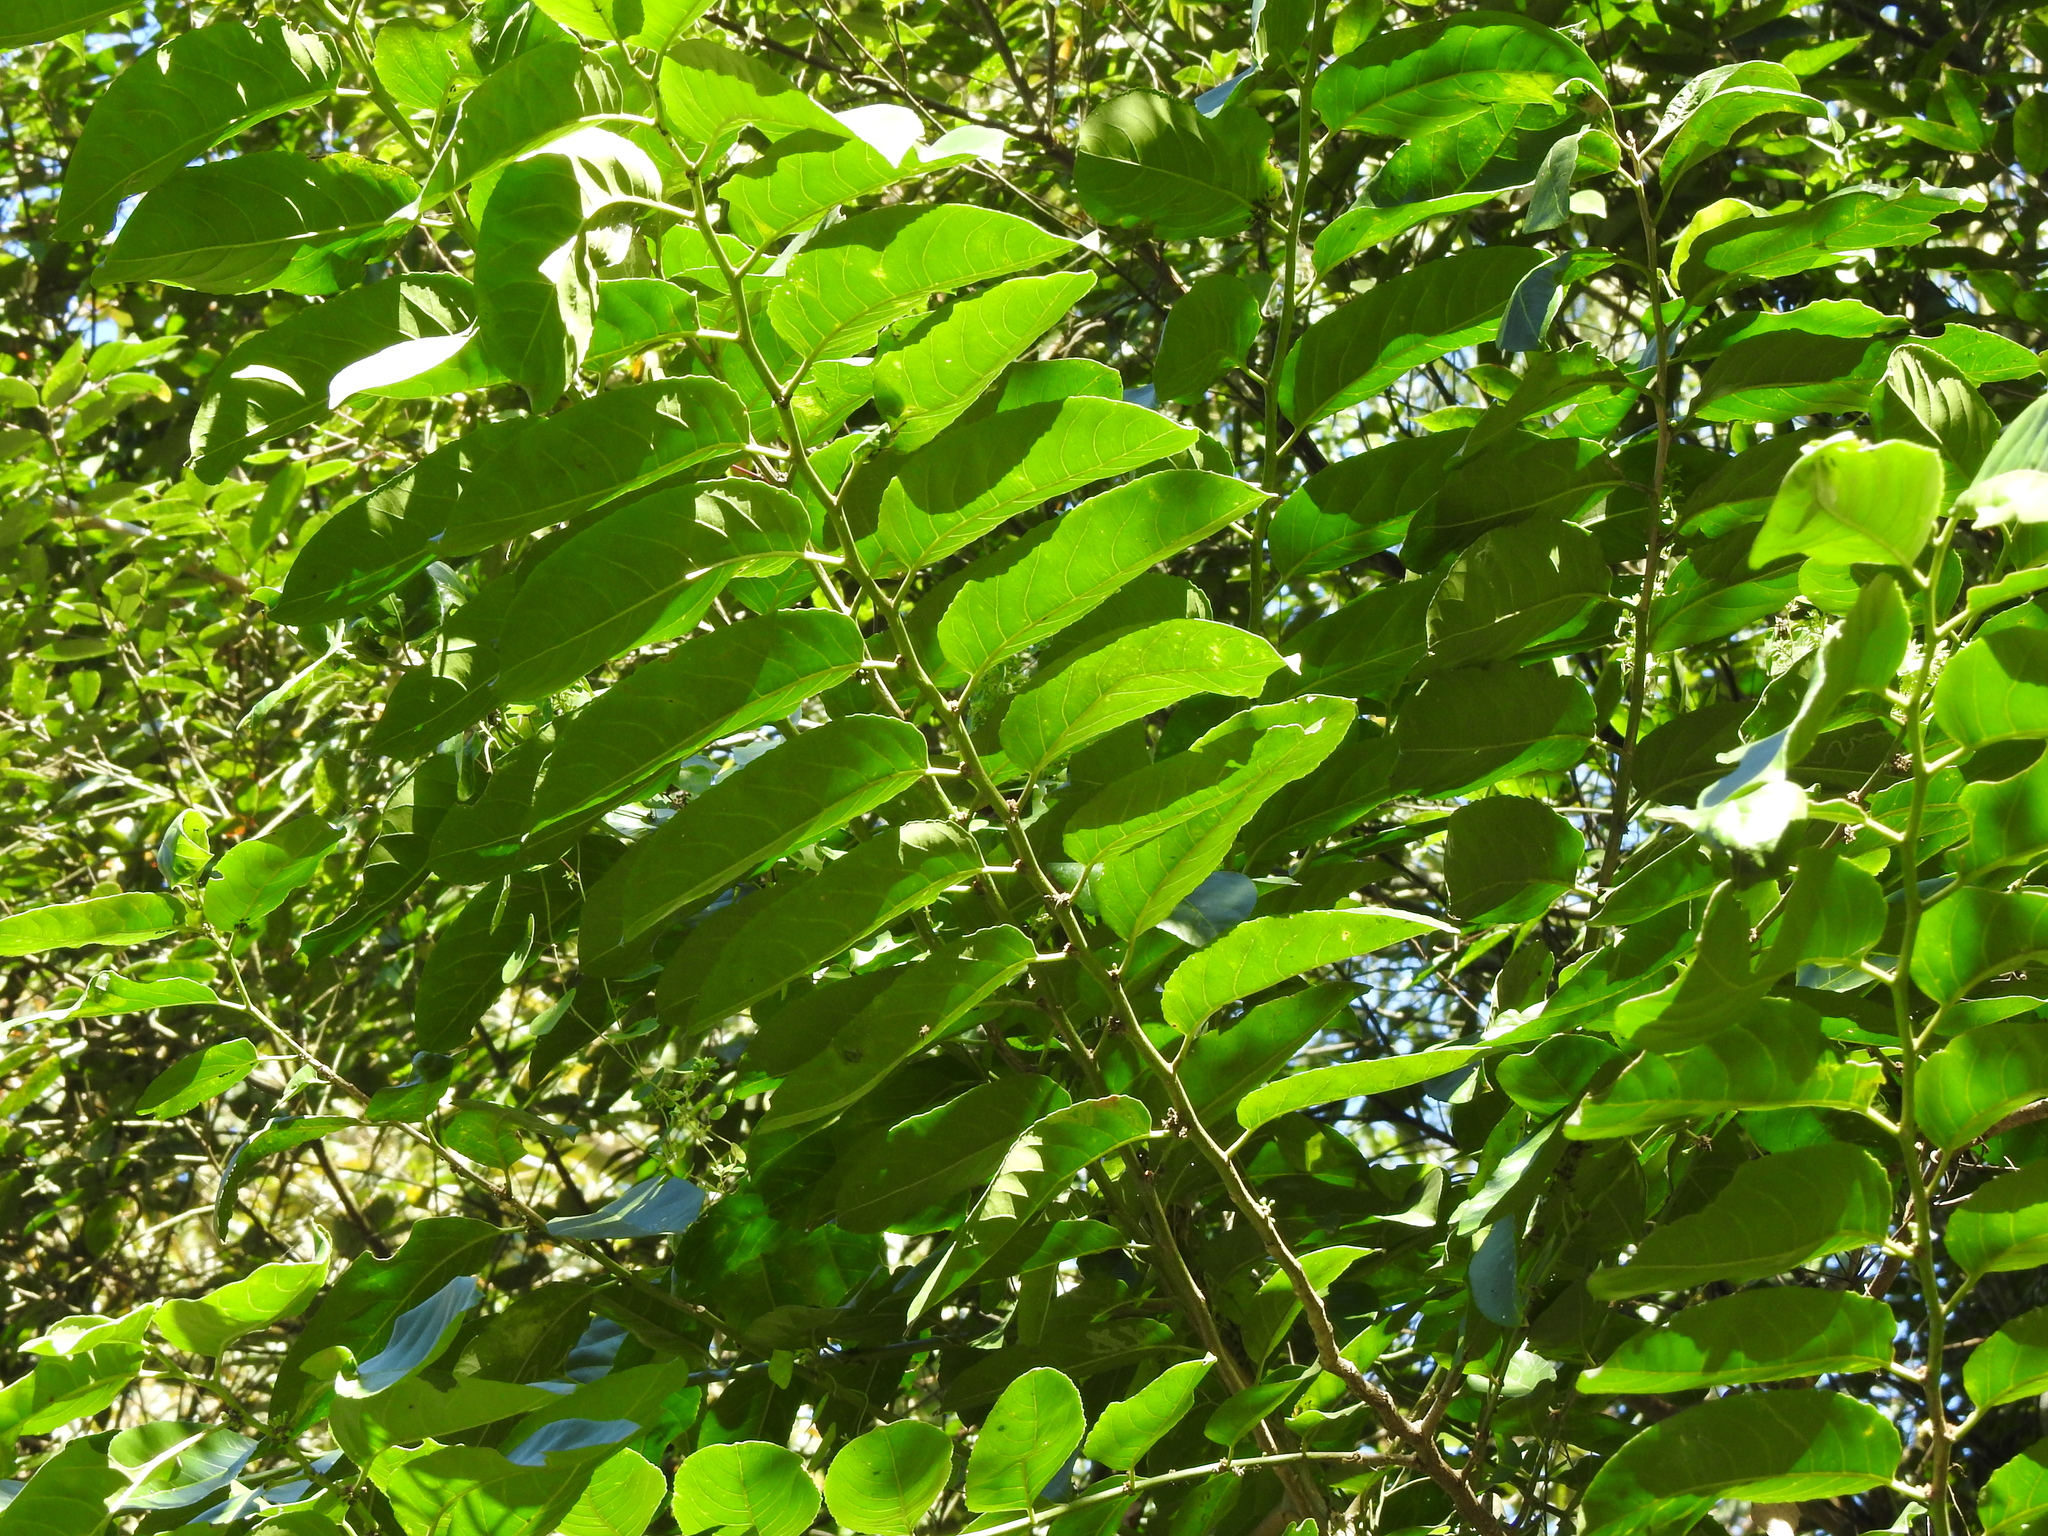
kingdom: Plantae
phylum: Tracheophyta
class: Magnoliopsida
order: Malpighiales
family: Salicaceae
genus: Casearia
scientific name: Casearia glomerata
